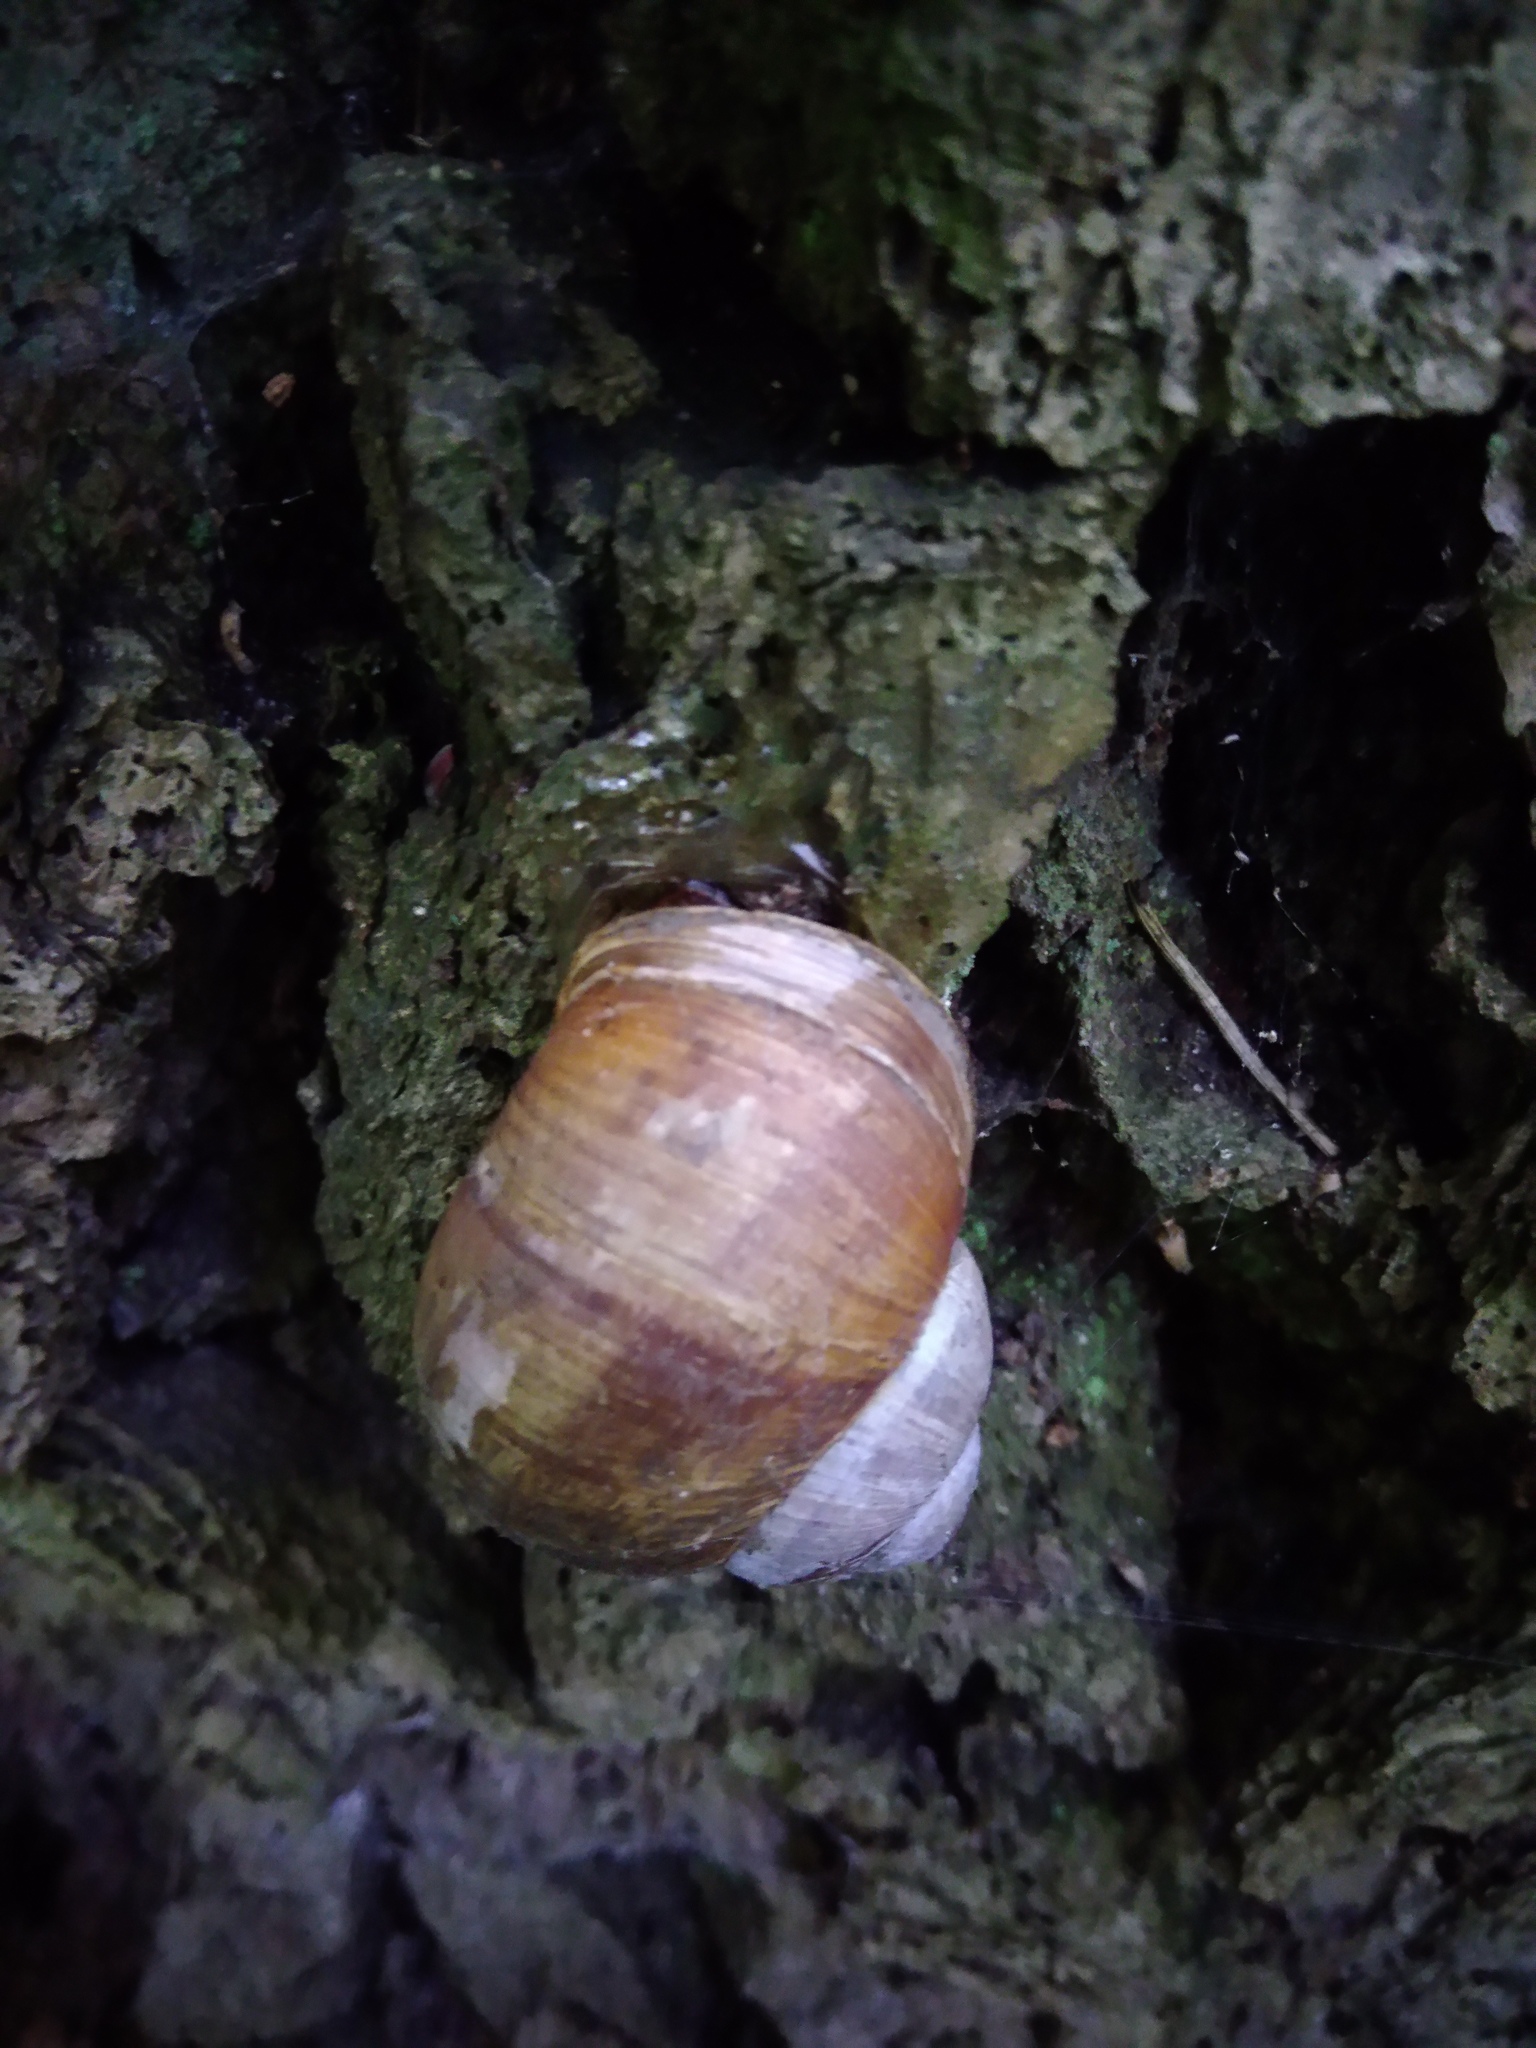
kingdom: Animalia
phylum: Mollusca
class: Gastropoda
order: Stylommatophora
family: Helicidae
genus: Helix
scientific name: Helix pomatia
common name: Roman snail
